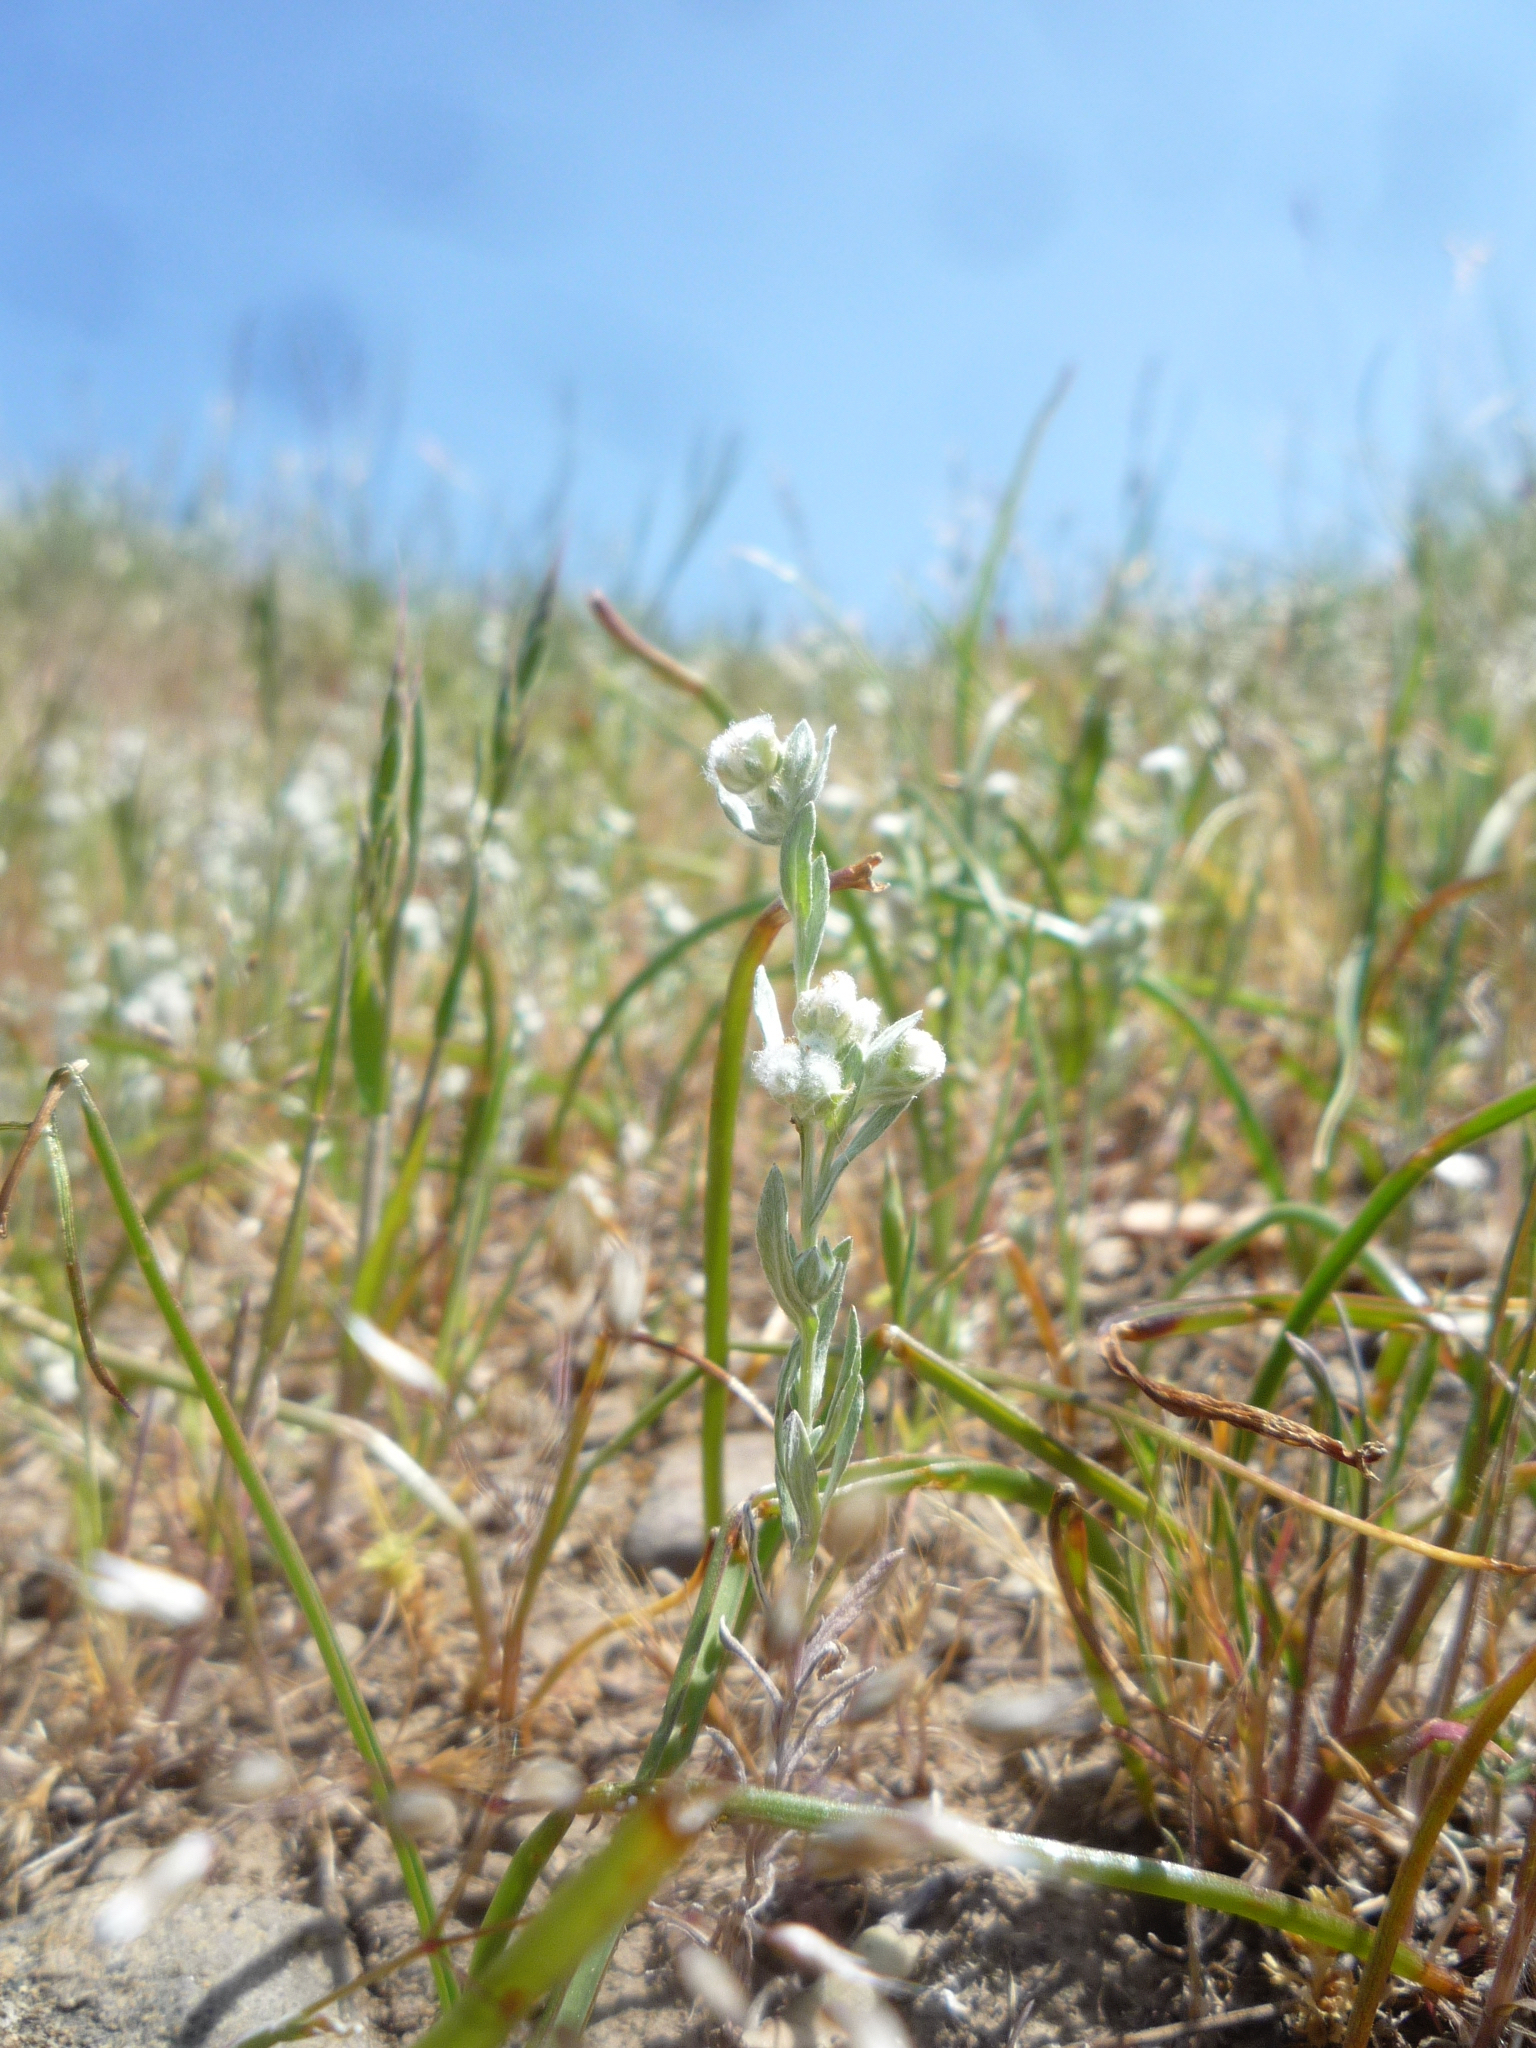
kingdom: Plantae
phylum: Tracheophyta
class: Magnoliopsida
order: Asterales
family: Asteraceae
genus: Bombycilaena
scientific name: Bombycilaena californica
